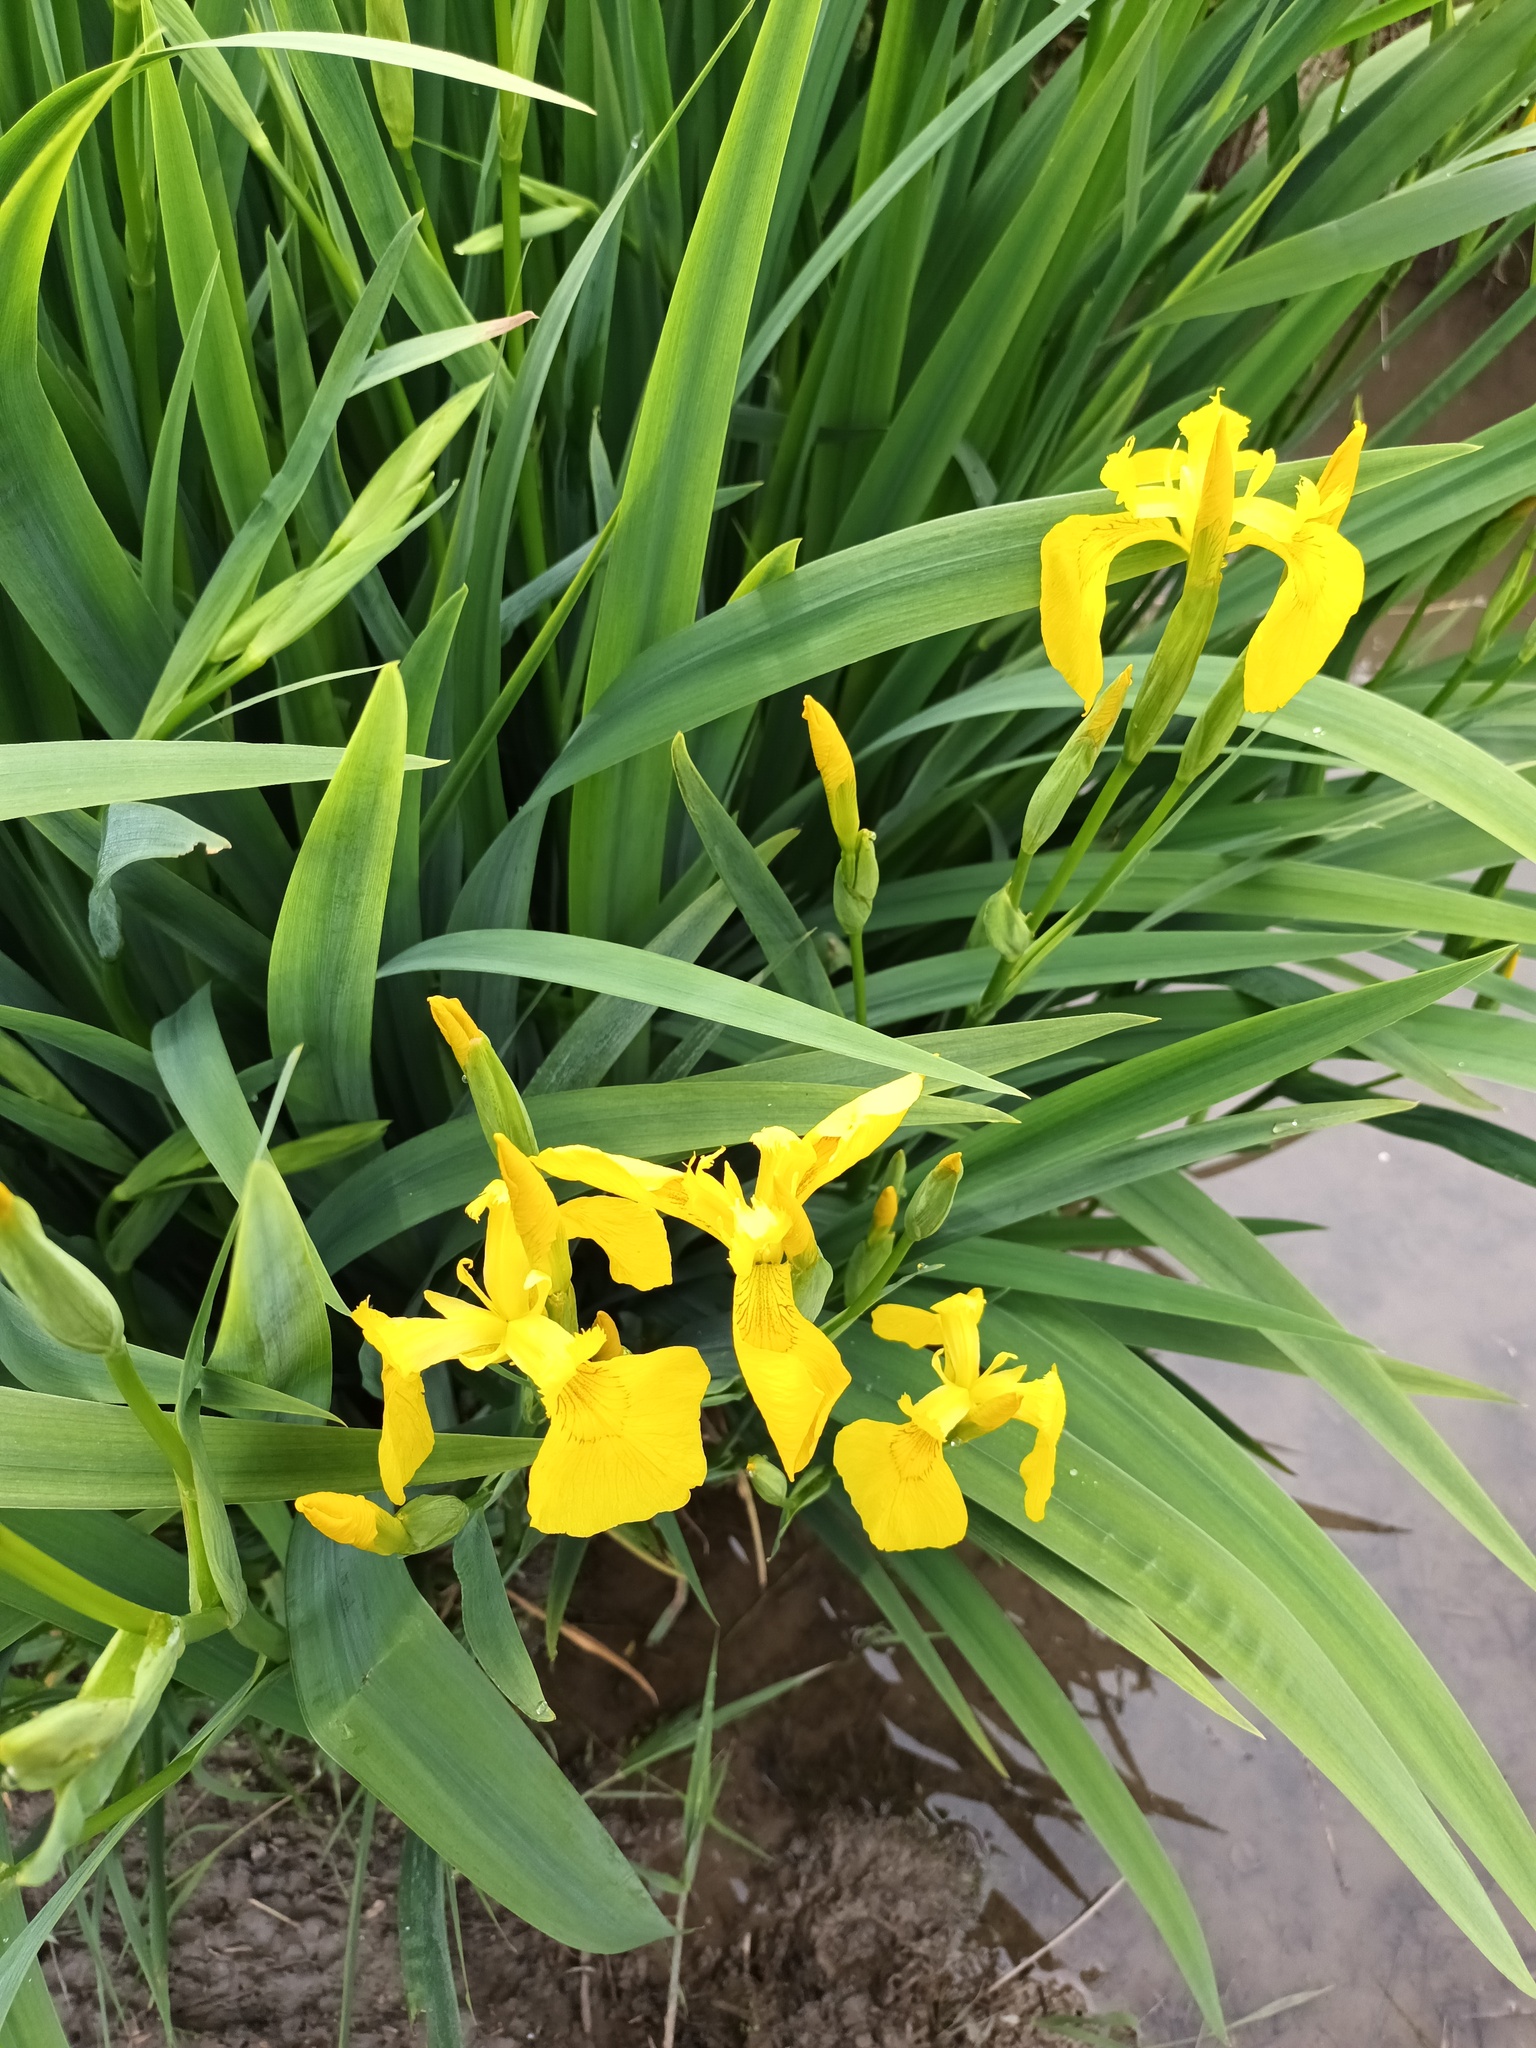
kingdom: Plantae
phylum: Tracheophyta
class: Liliopsida
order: Asparagales
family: Iridaceae
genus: Iris
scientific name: Iris pseudacorus
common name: Yellow flag
